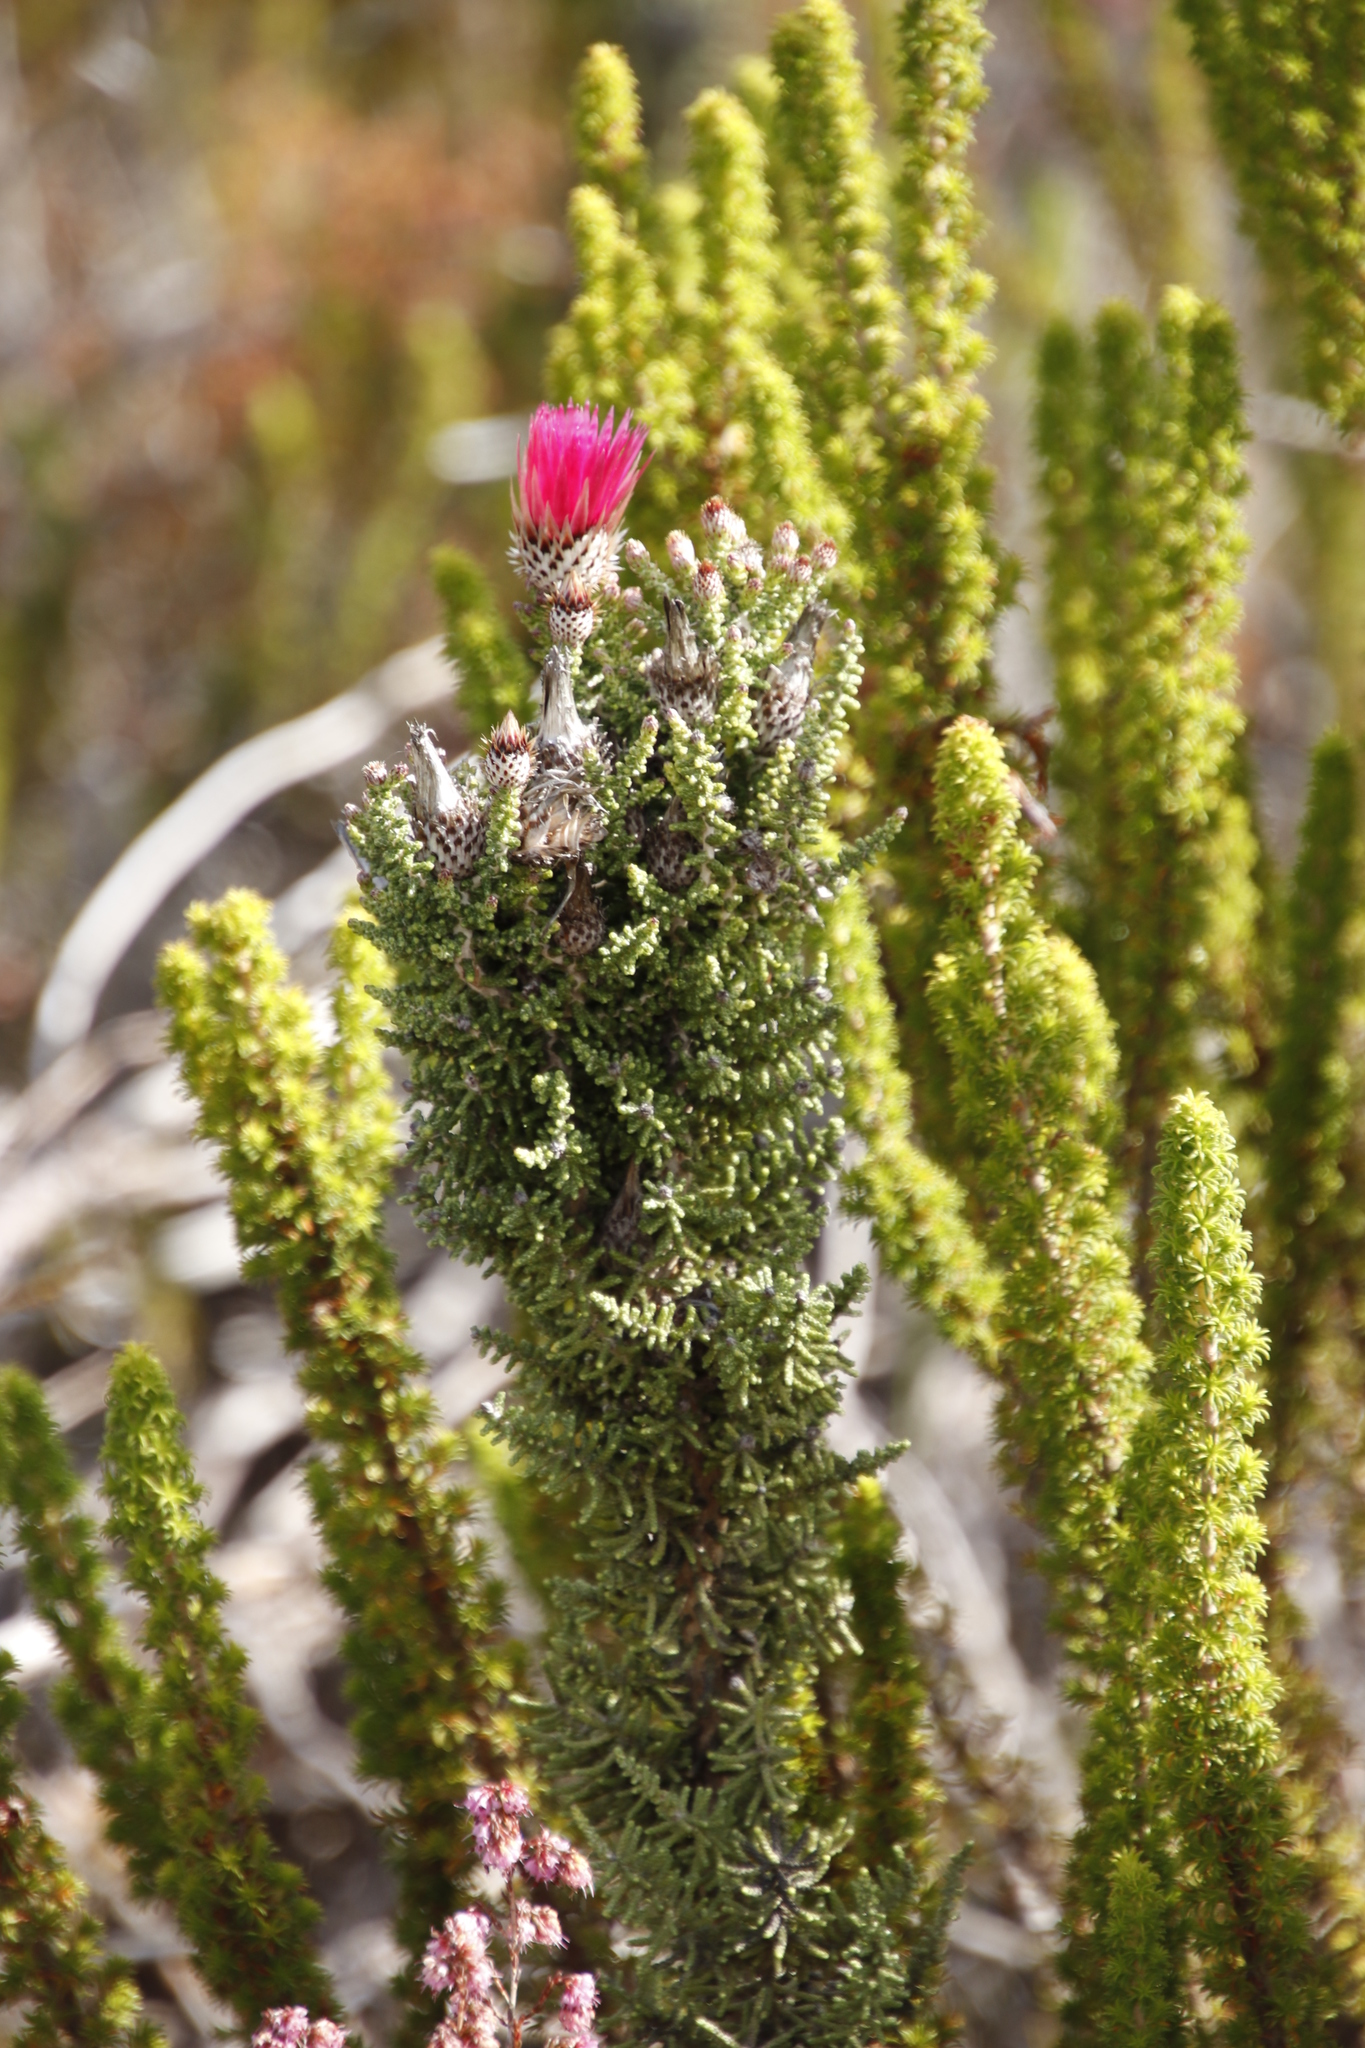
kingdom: Plantae
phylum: Tracheophyta
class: Magnoliopsida
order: Asterales
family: Asteraceae
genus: Phaenocoma
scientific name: Phaenocoma prolifera
